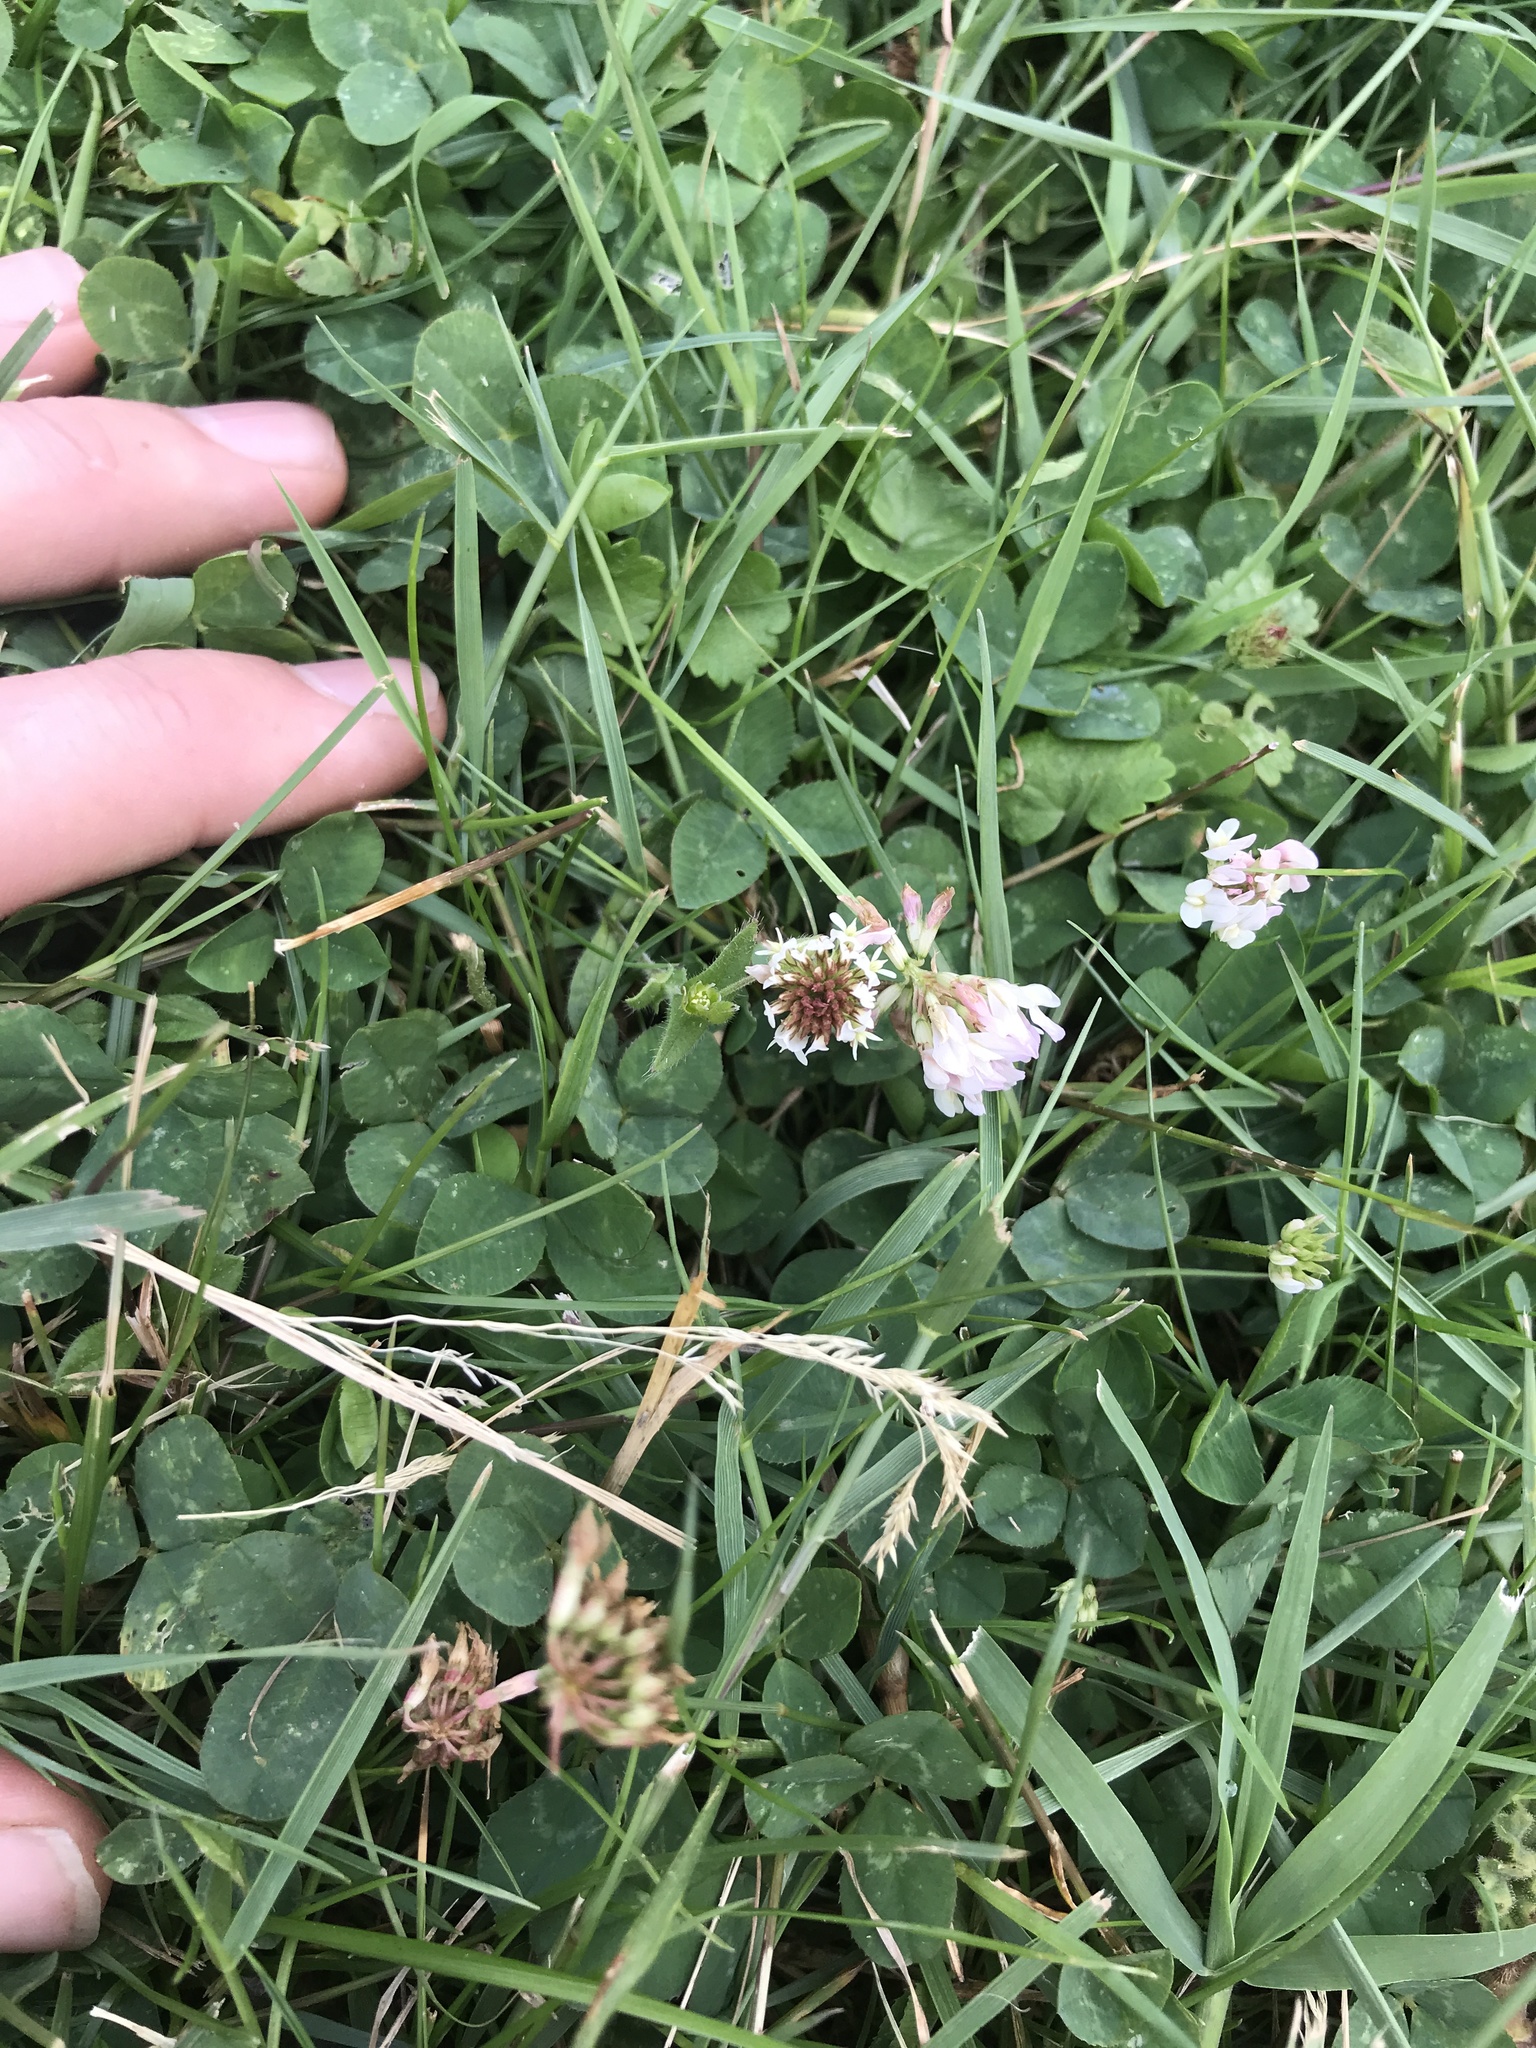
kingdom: Plantae
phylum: Tracheophyta
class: Magnoliopsida
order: Fabales
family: Fabaceae
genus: Trifolium
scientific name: Trifolium repens
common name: White clover
